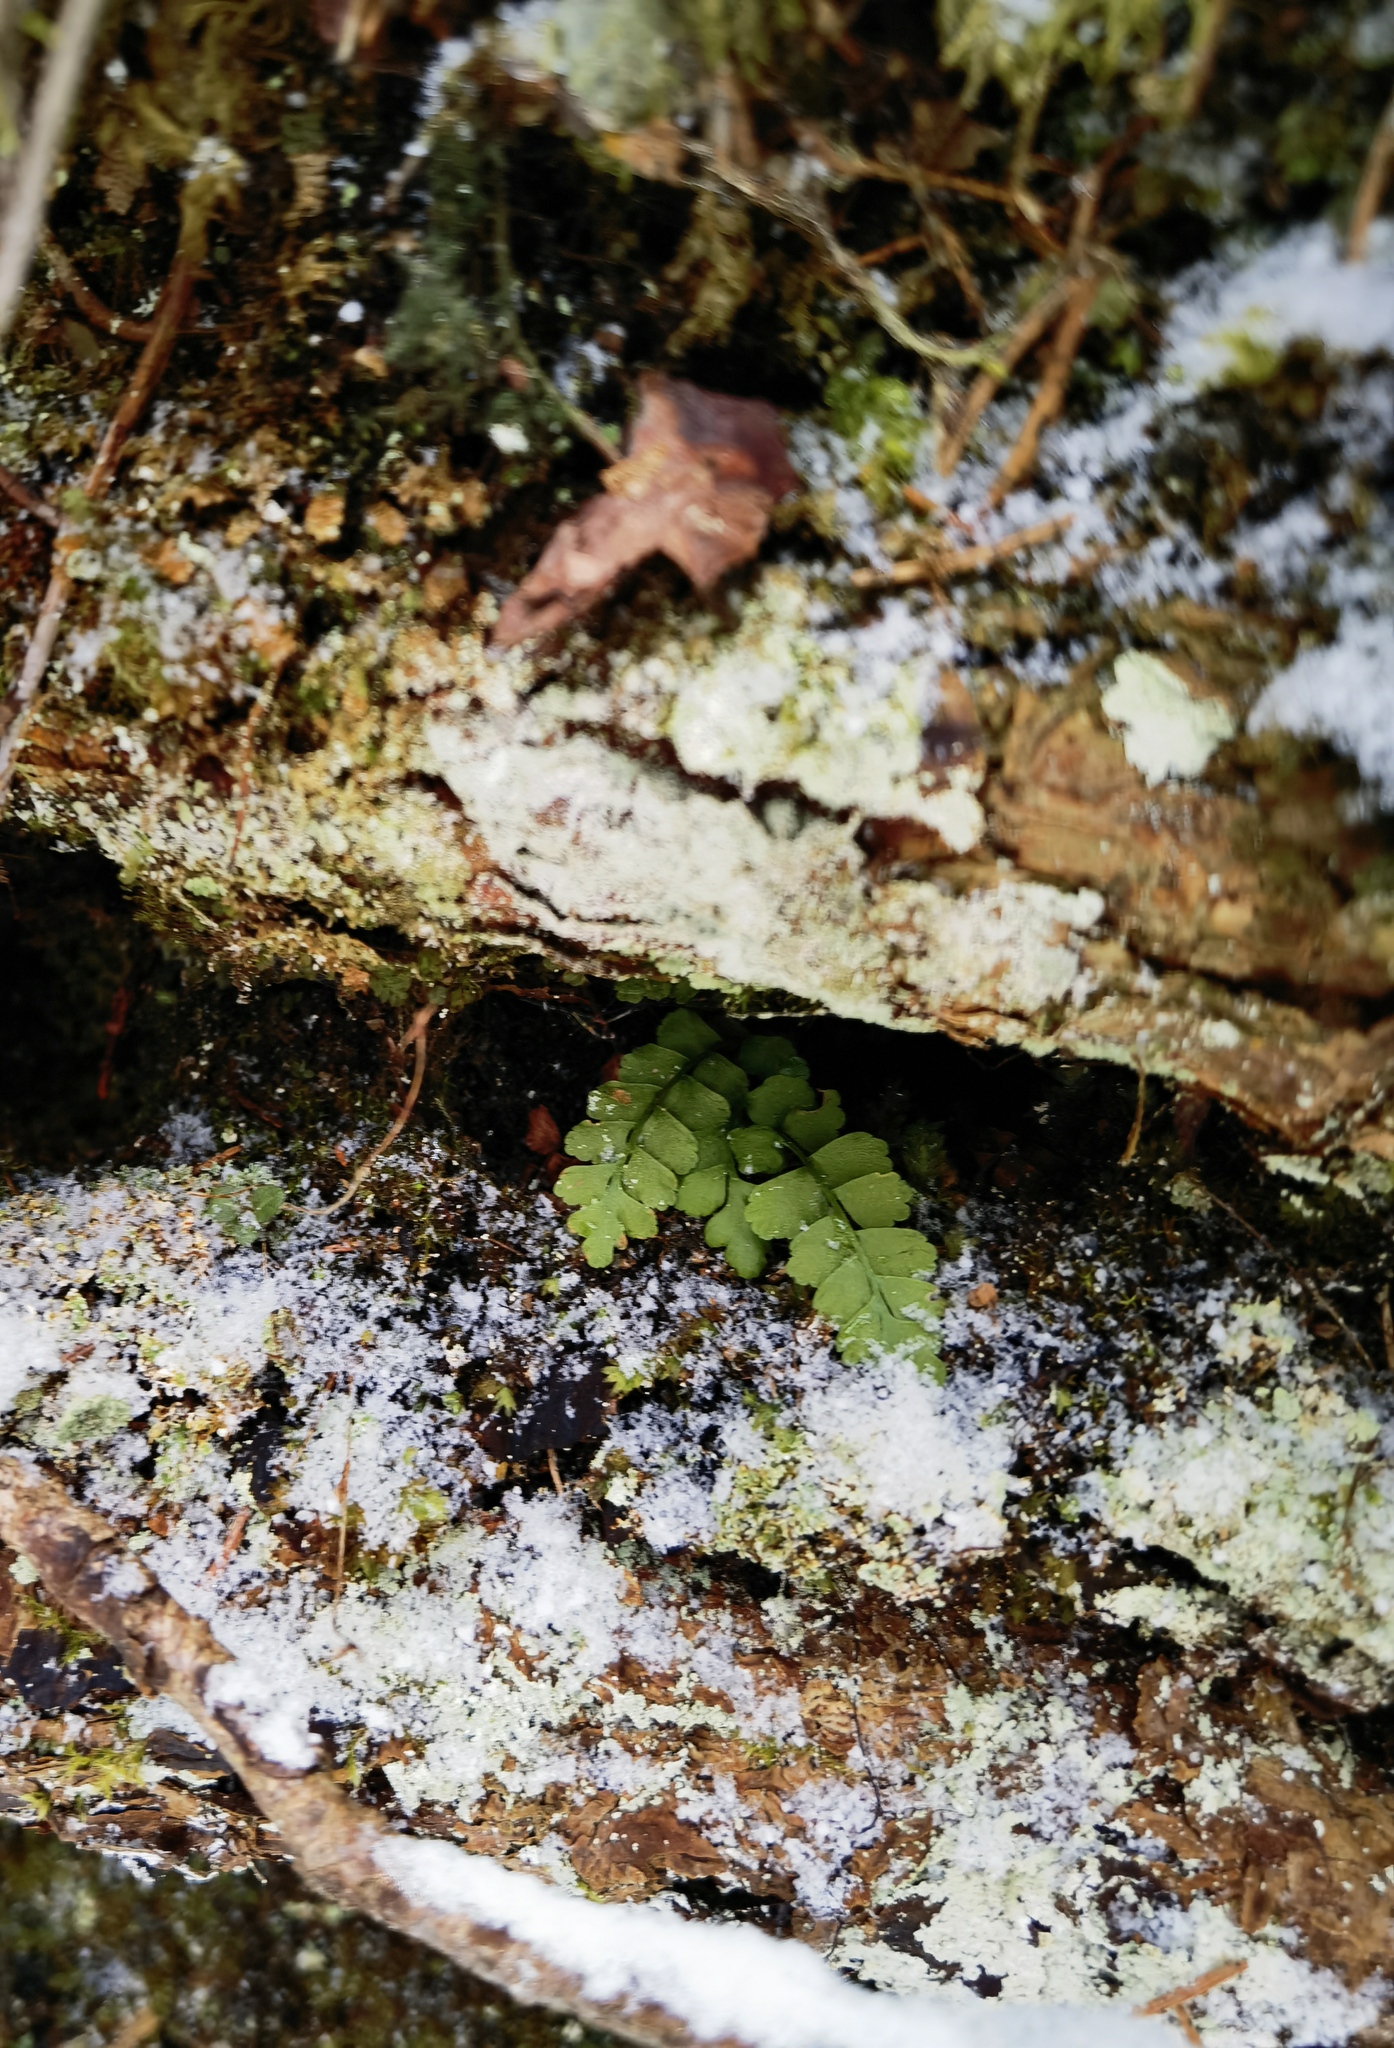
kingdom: Plantae
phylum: Tracheophyta
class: Polypodiopsida
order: Polypodiales
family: Aspleniaceae
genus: Asplenium
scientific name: Asplenium viride
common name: Green spleenwort
